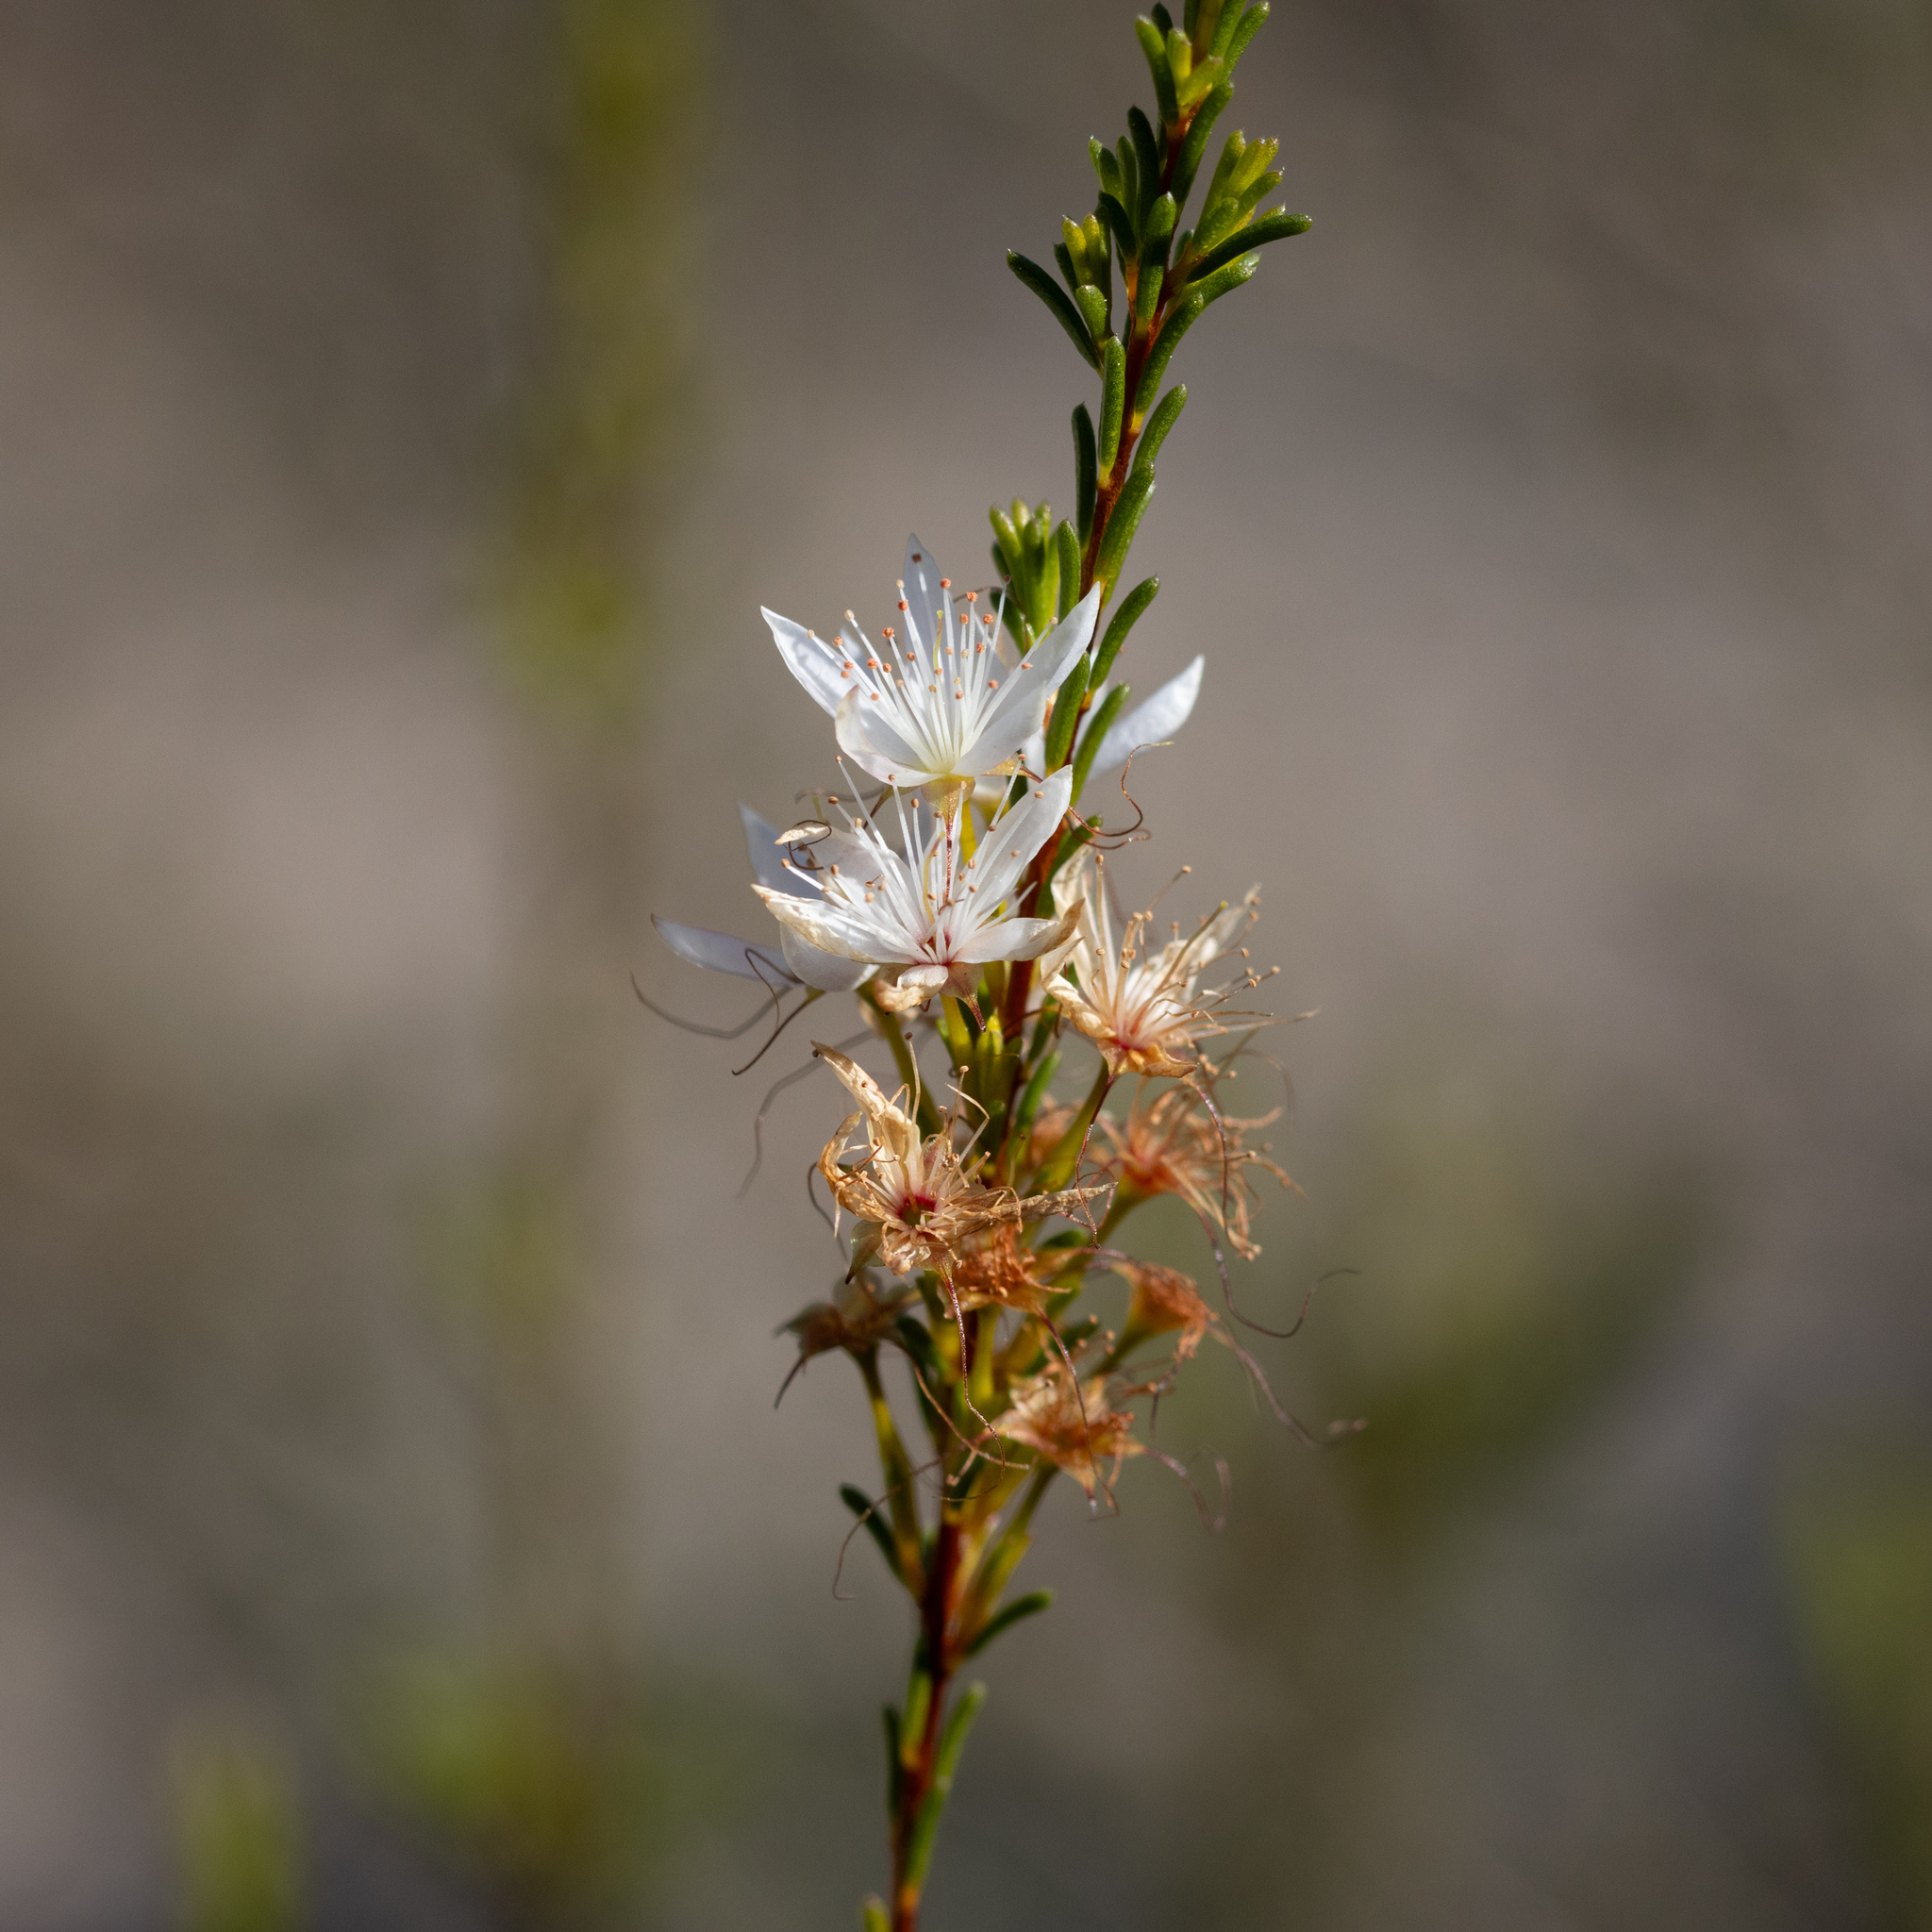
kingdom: Plantae
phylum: Tracheophyta
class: Magnoliopsida
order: Myrtales
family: Myrtaceae
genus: Calytrix
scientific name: Calytrix tetragona
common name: Common fringe myrtle
